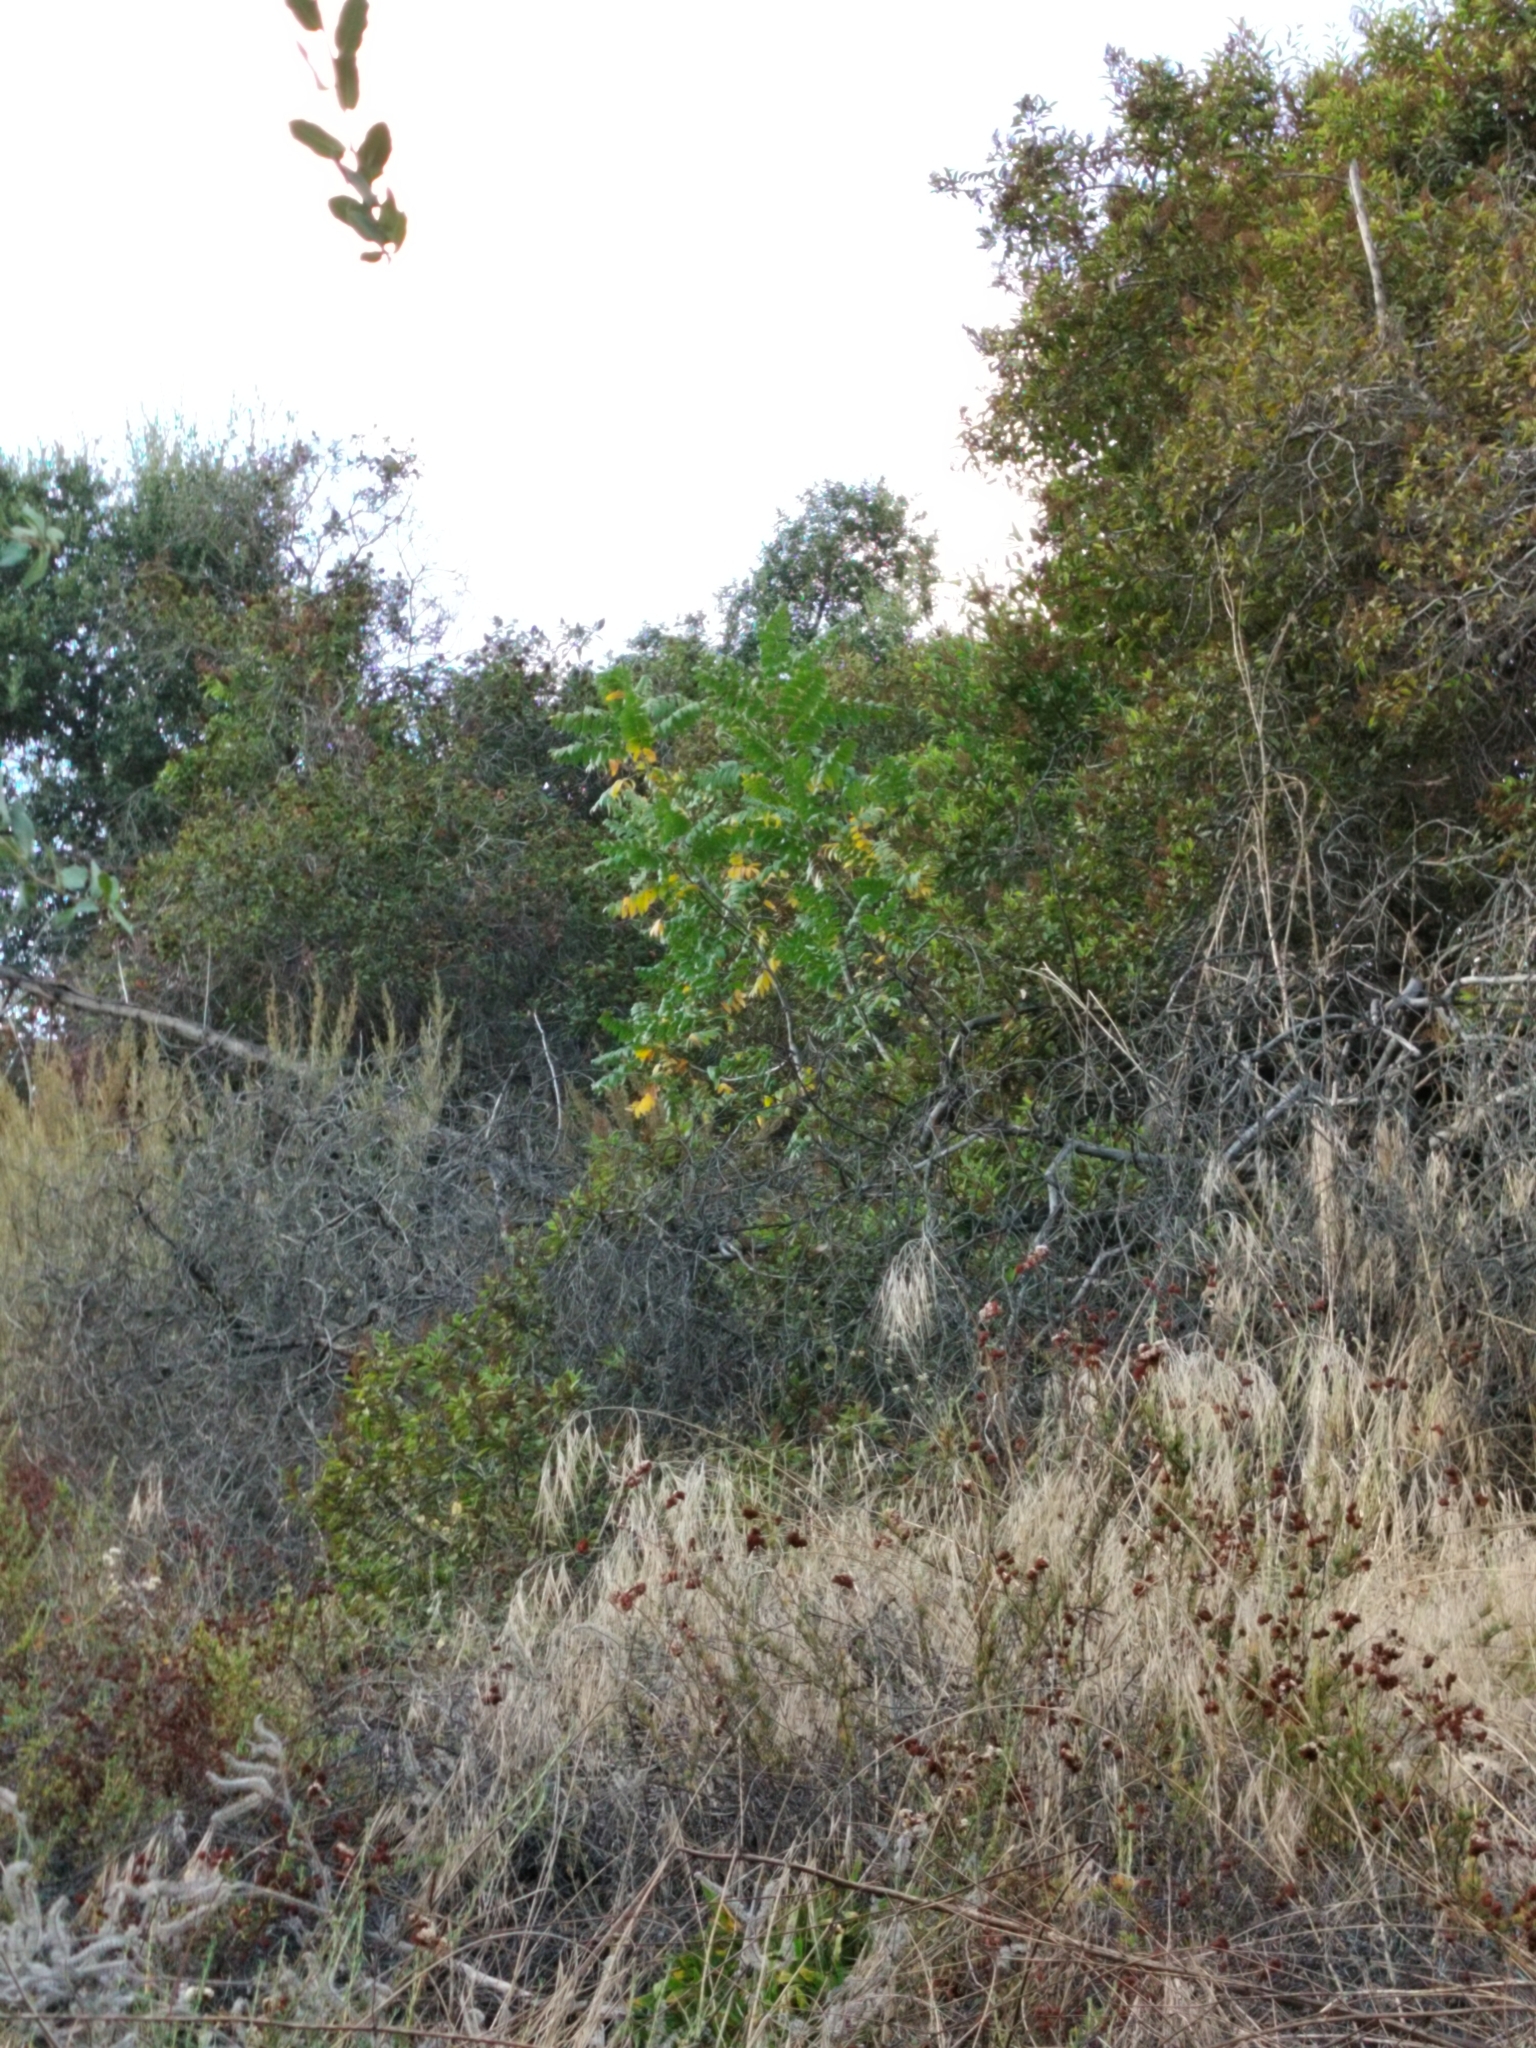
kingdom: Plantae
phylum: Tracheophyta
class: Magnoliopsida
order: Fagales
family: Juglandaceae
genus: Juglans
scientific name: Juglans californica
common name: Southern california black walnut
